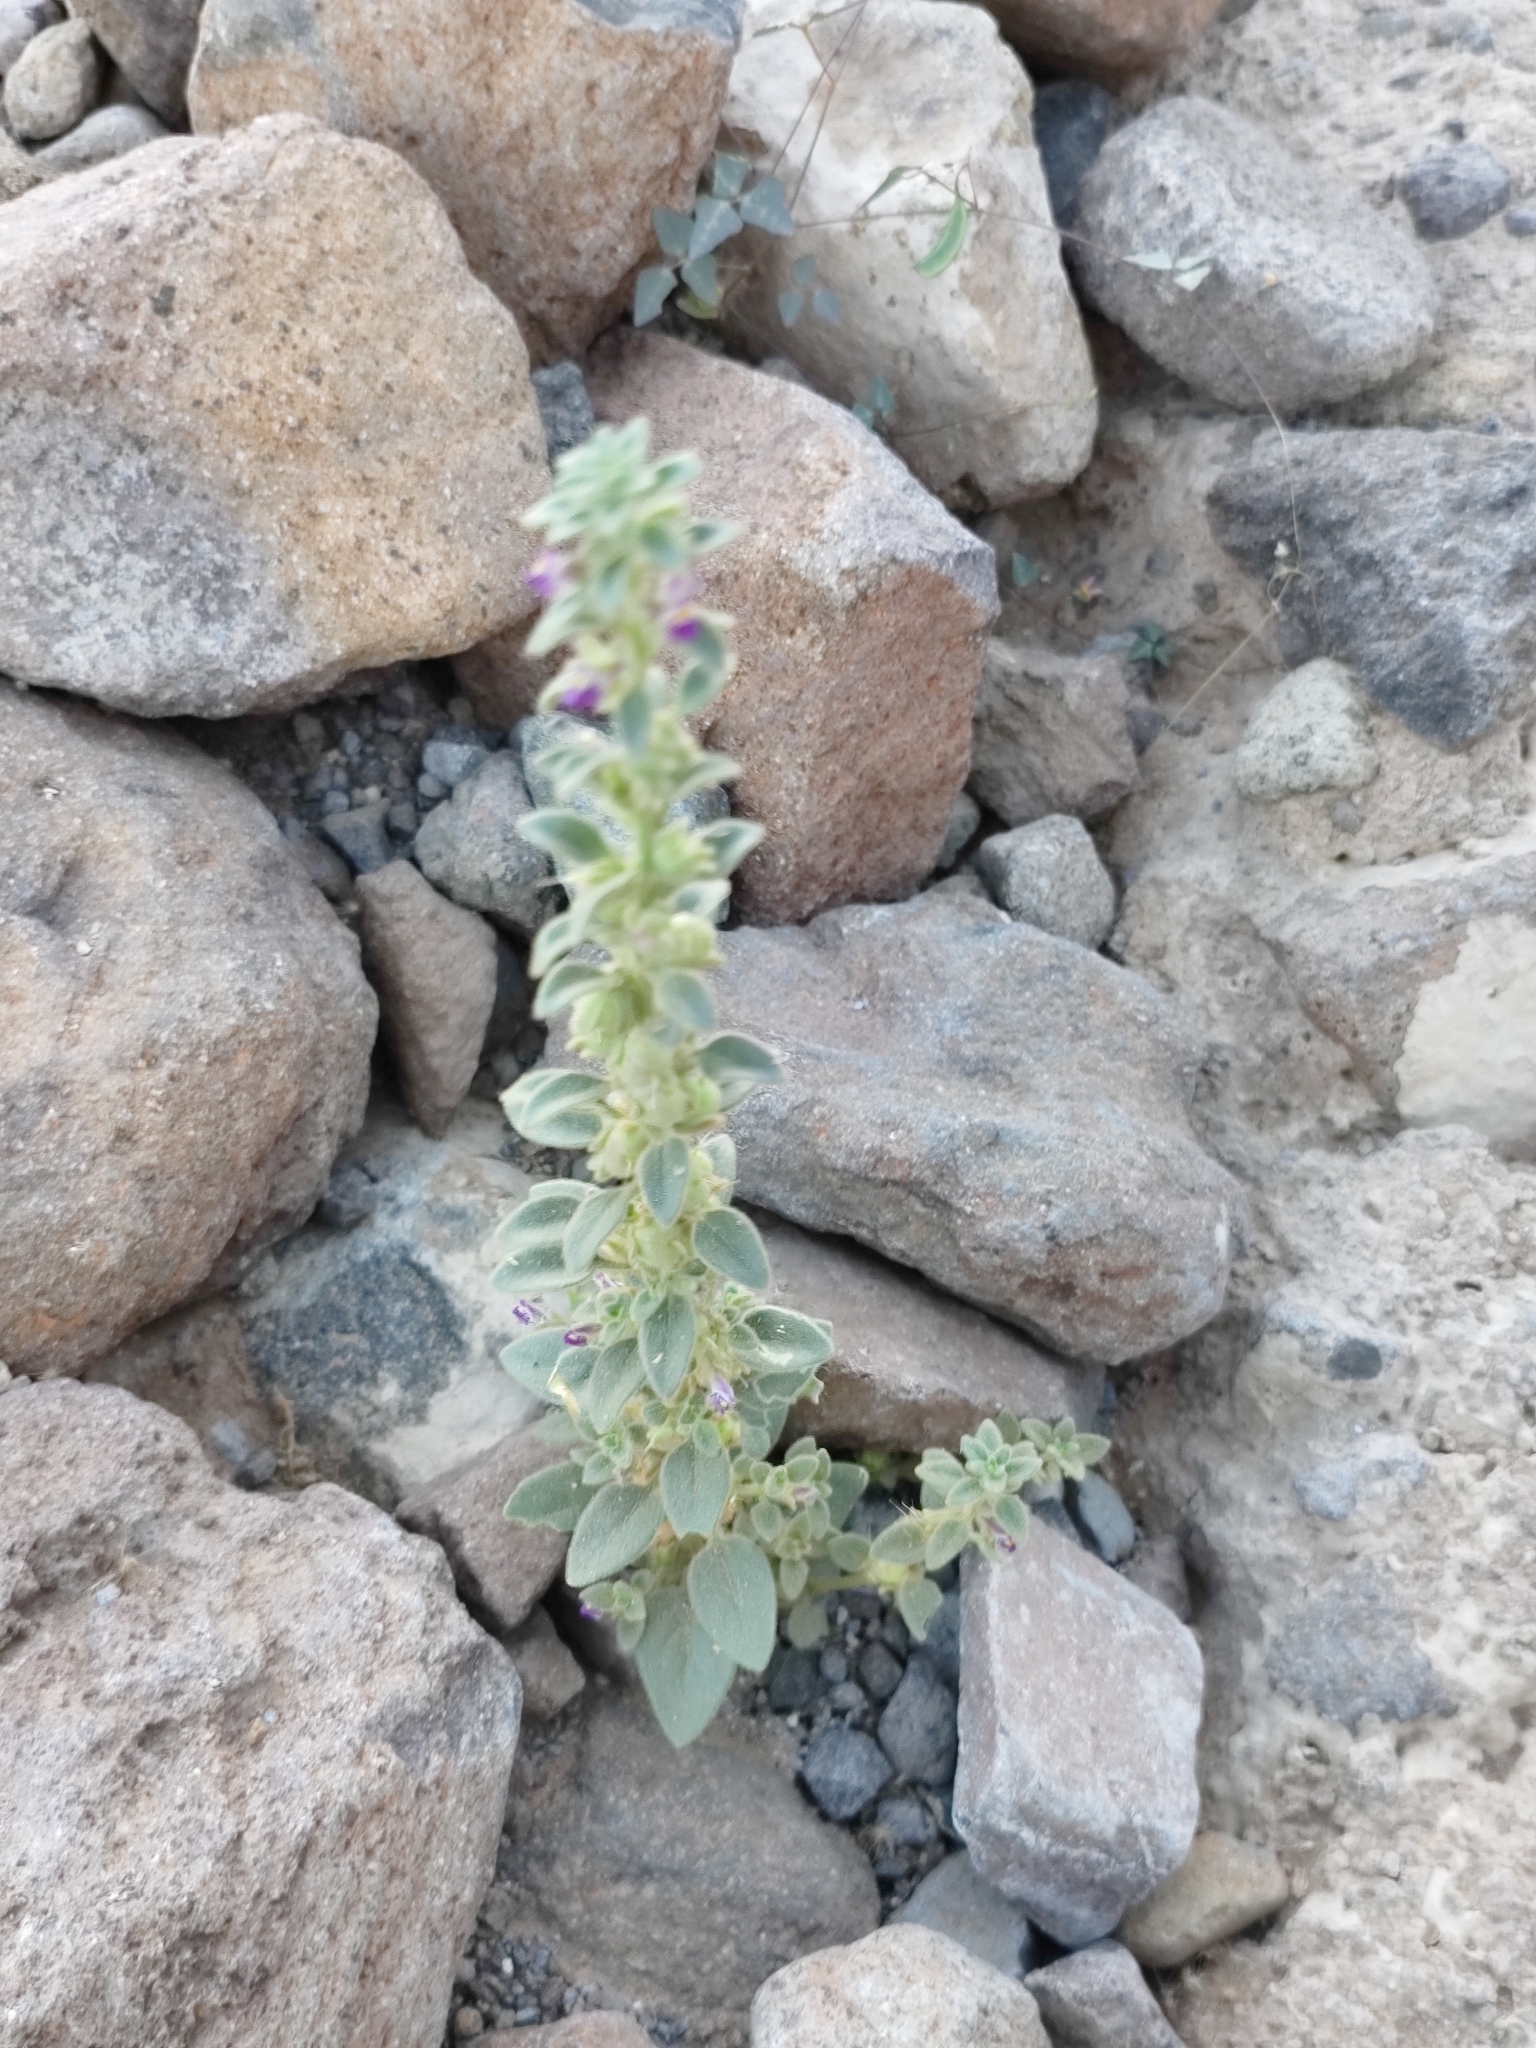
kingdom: Plantae
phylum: Tracheophyta
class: Magnoliopsida
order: Lamiales
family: Plantaginaceae
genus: Pseudorontium
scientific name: Pseudorontium cyathiferum
